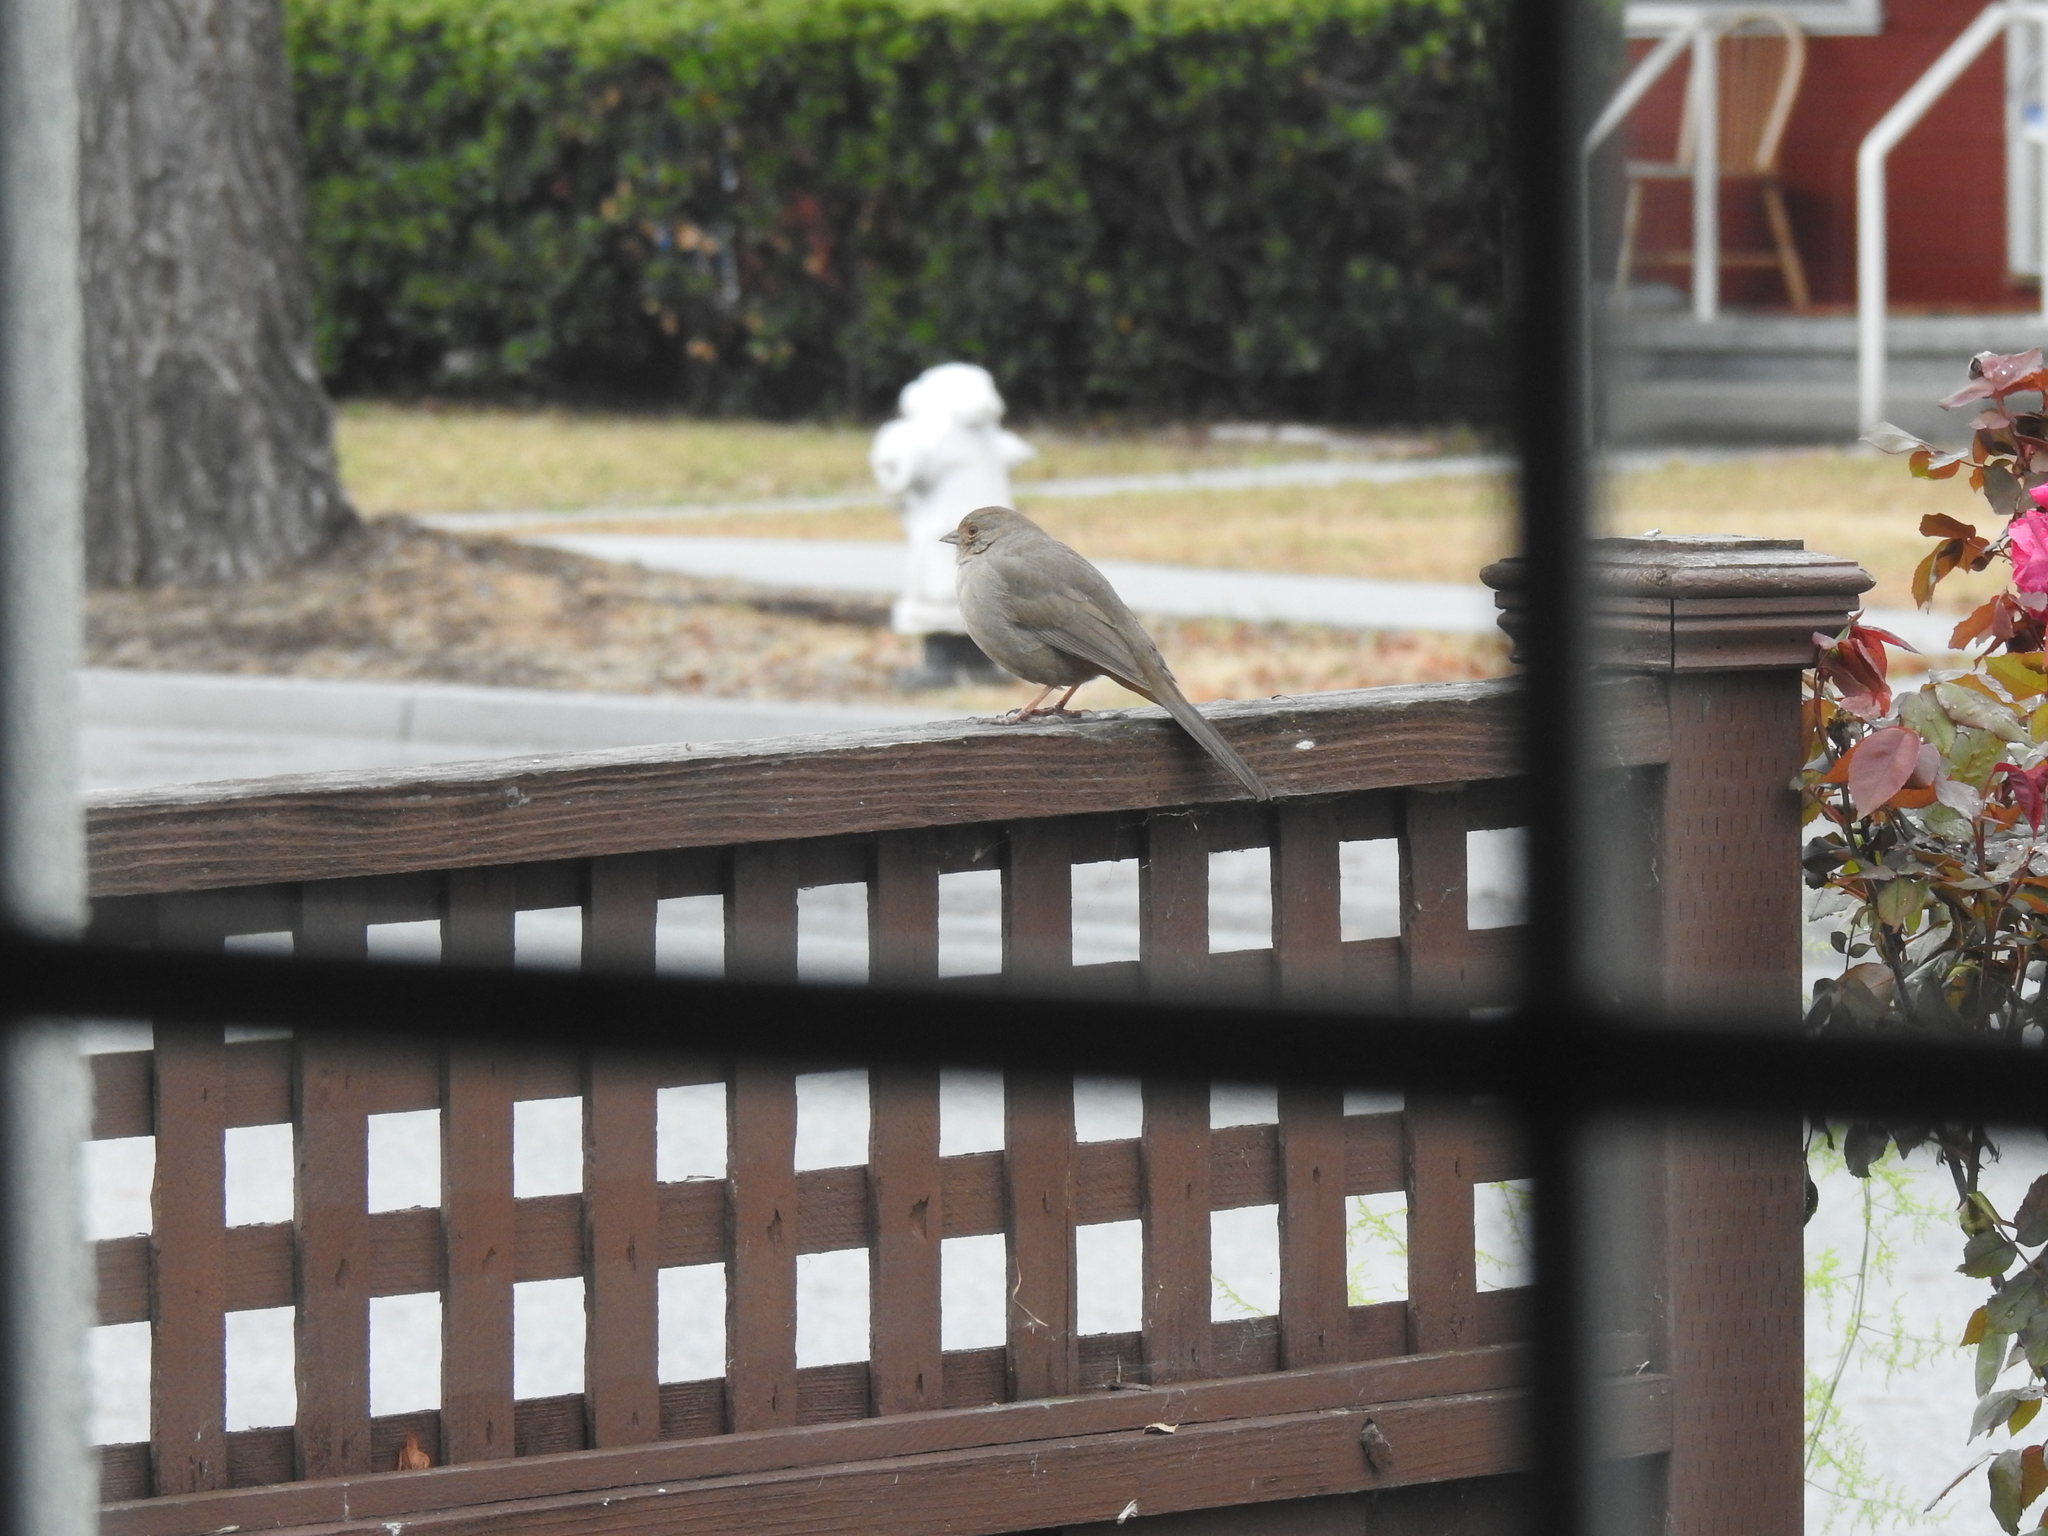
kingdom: Animalia
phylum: Chordata
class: Aves
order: Passeriformes
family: Passerellidae
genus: Melozone
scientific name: Melozone crissalis
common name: California towhee
